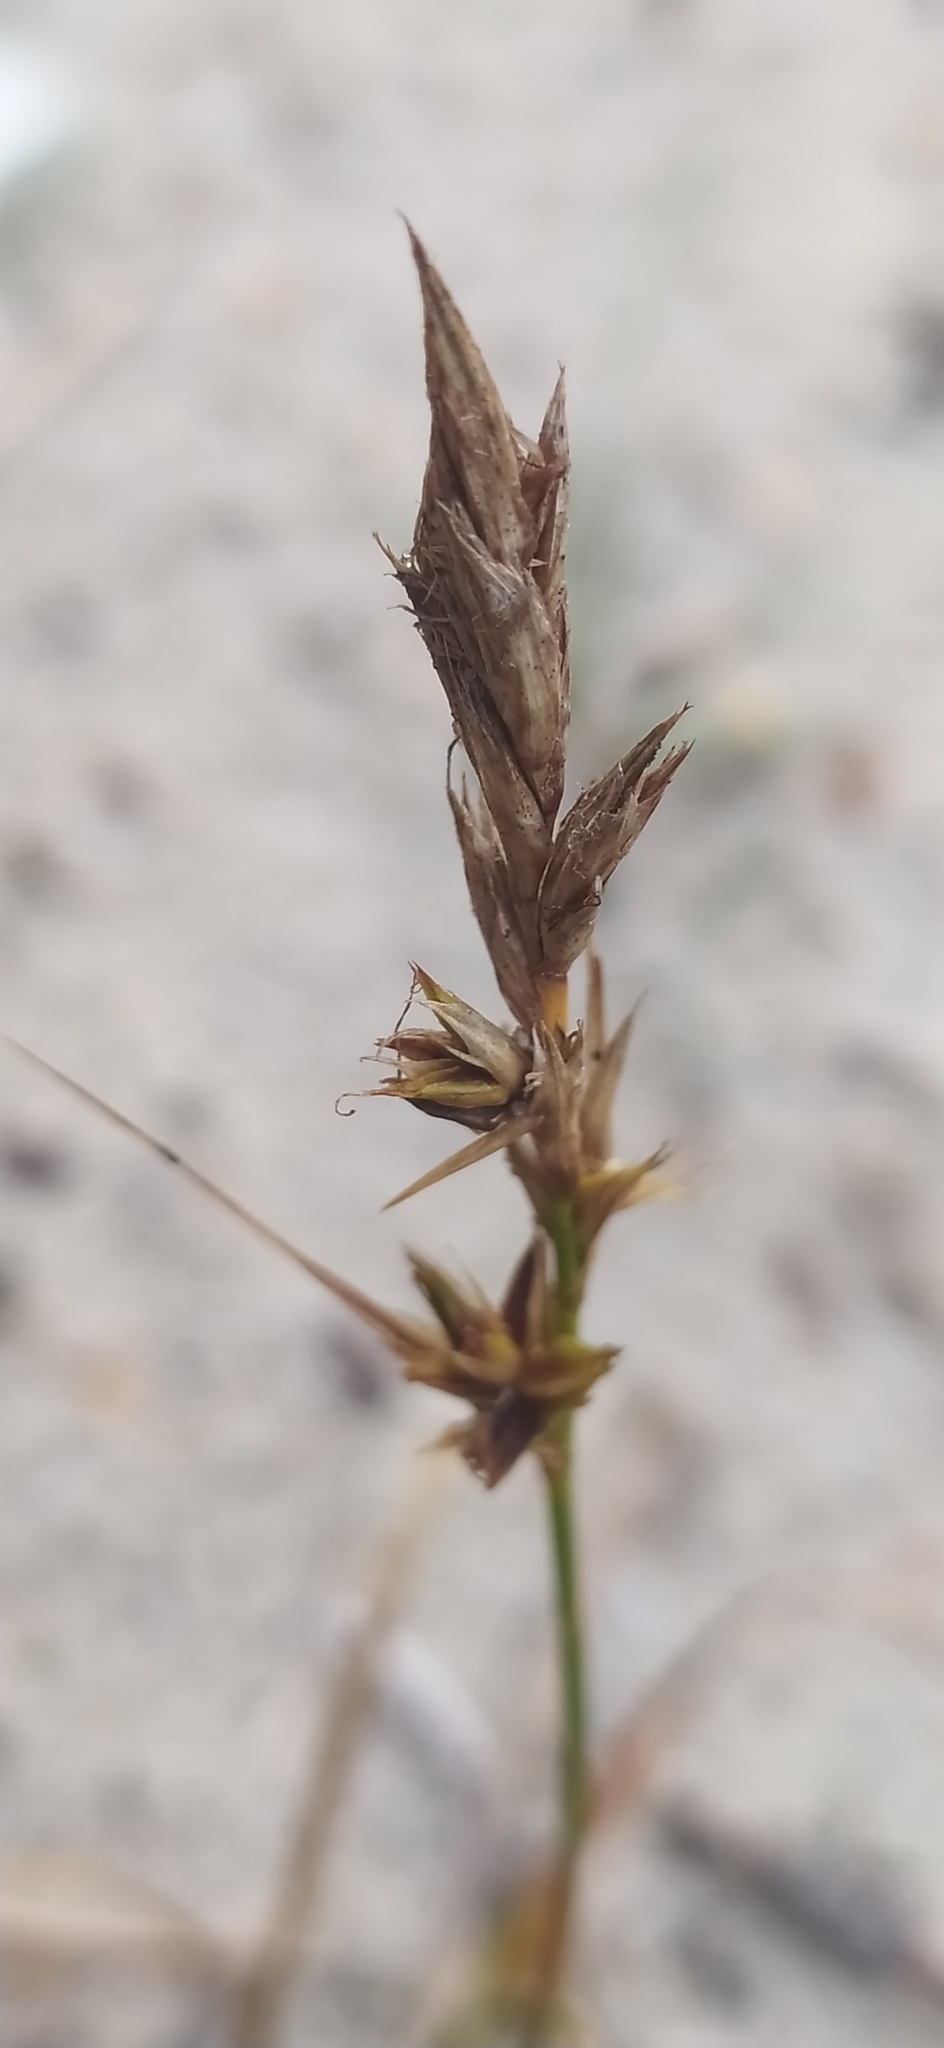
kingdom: Plantae
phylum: Tracheophyta
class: Liliopsida
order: Poales
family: Cyperaceae
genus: Carex
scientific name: Carex arenaria
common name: Sand sedge
